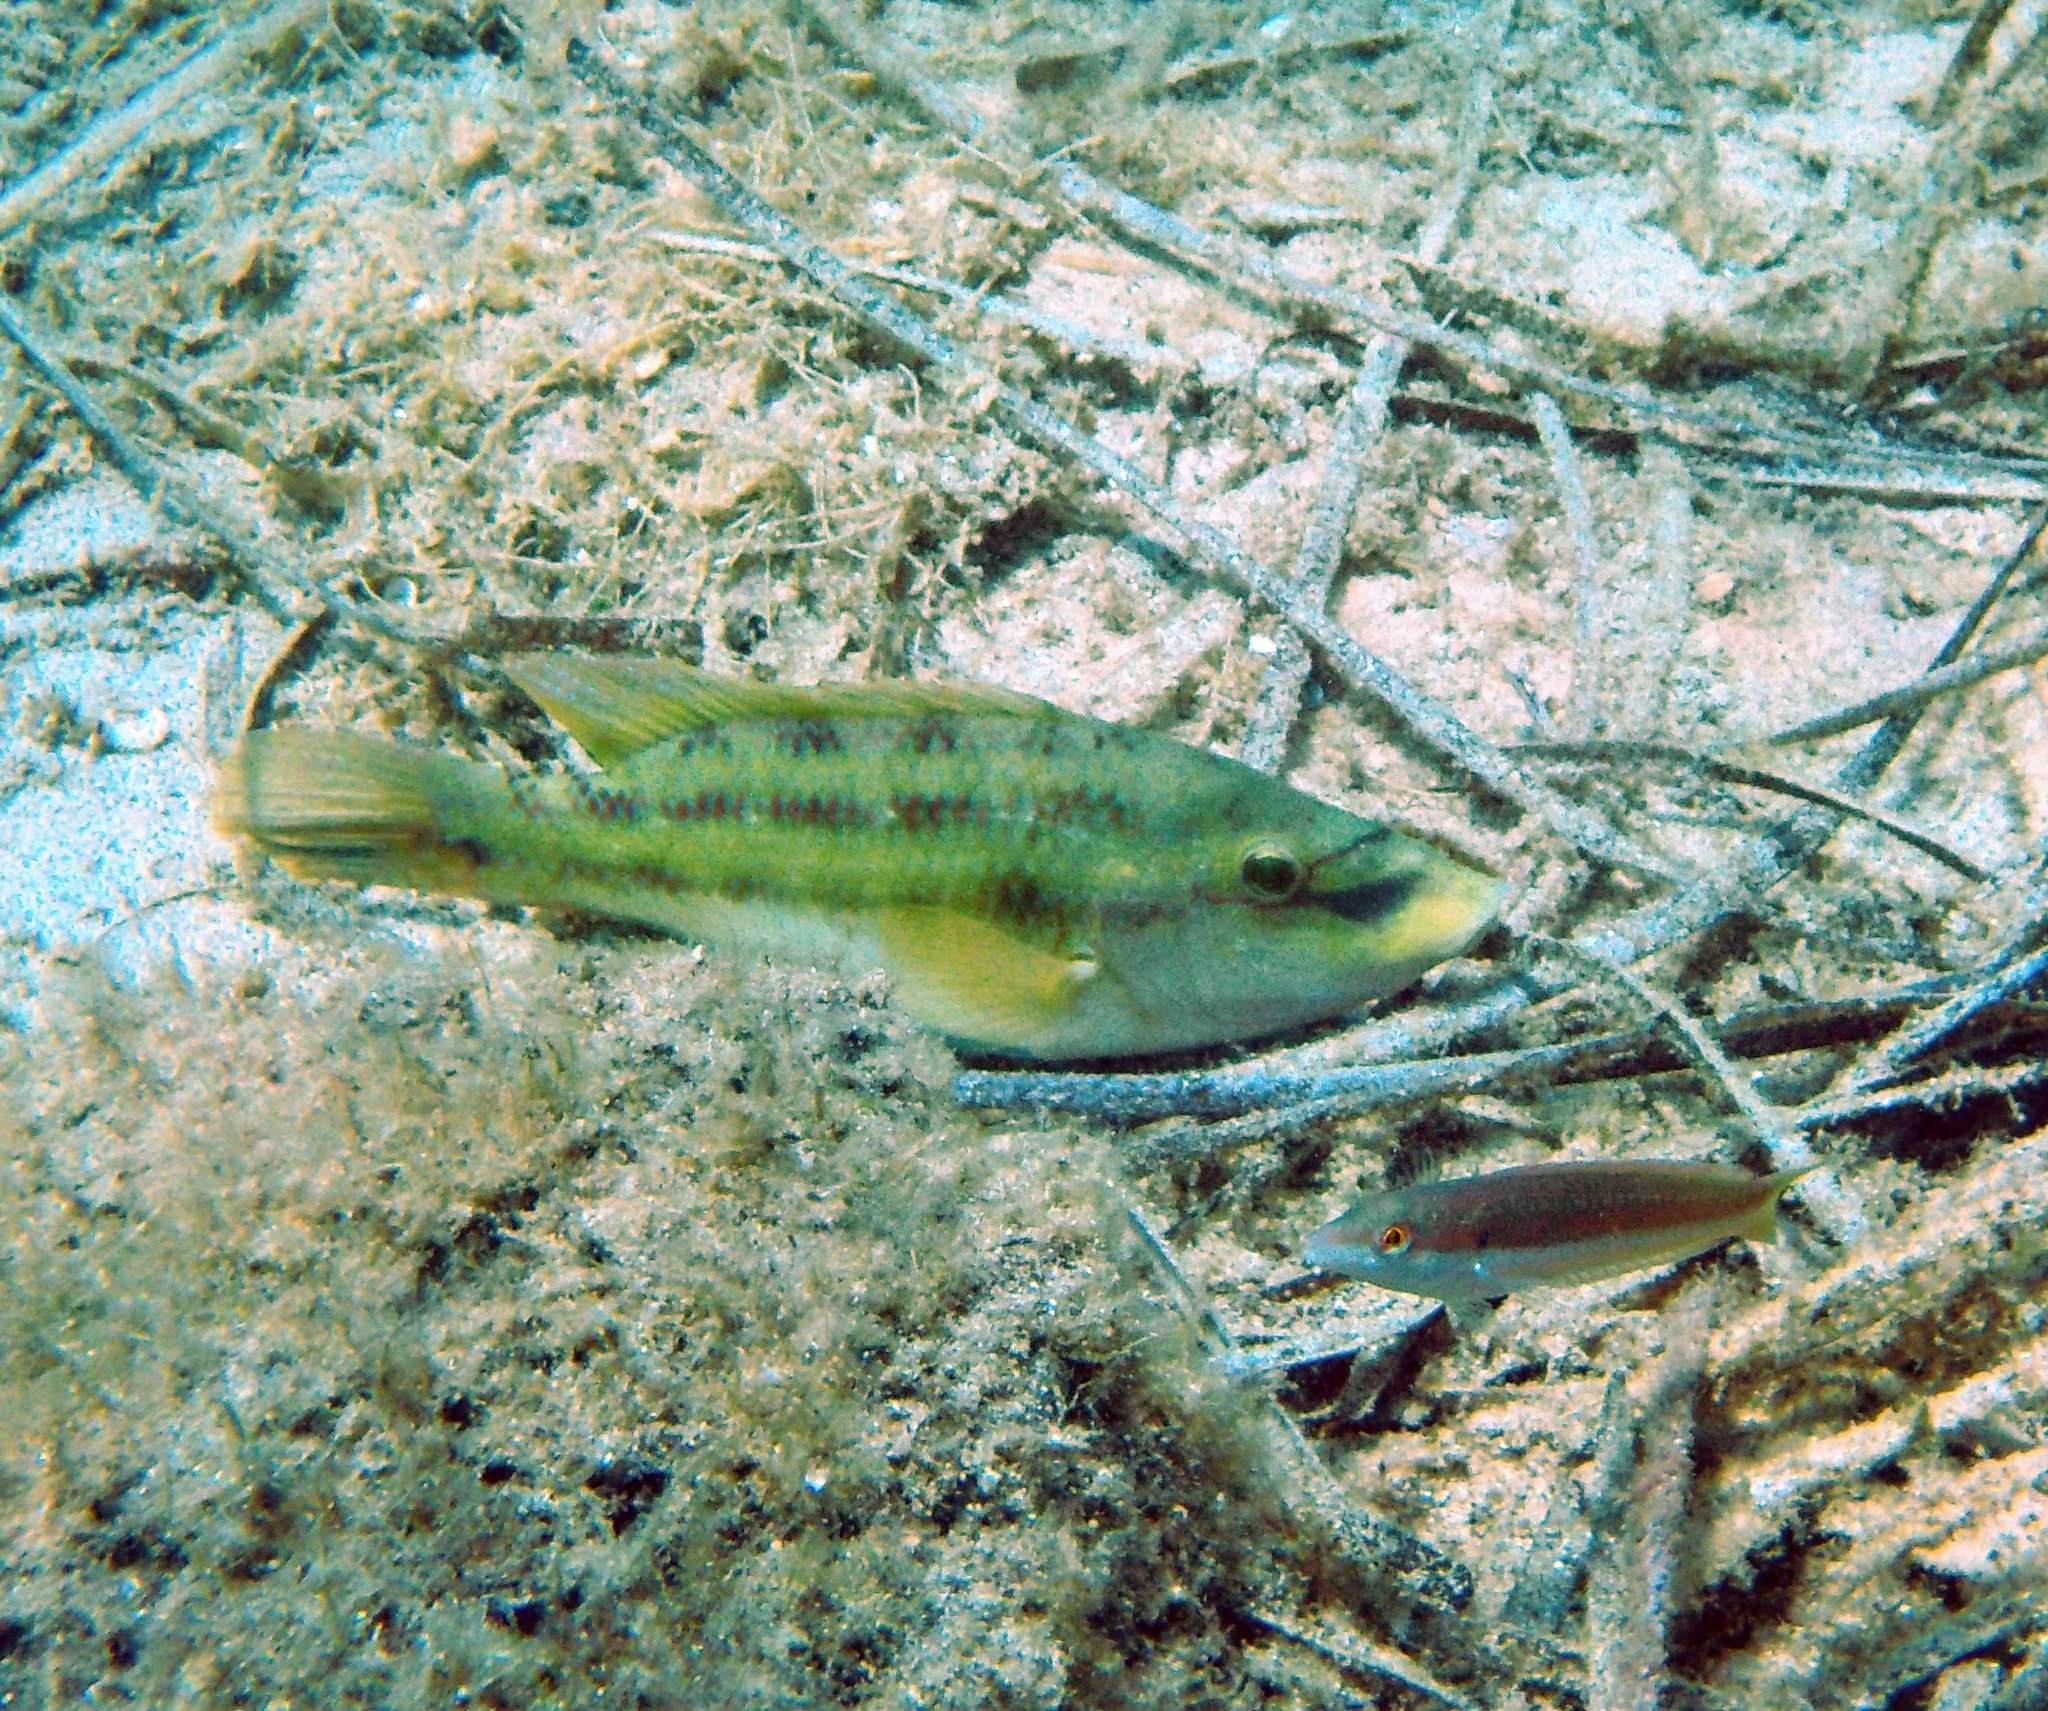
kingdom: Animalia
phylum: Chordata
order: Perciformes
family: Labridae
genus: Symphodus
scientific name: Symphodus tinca
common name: Peacock wrasse
